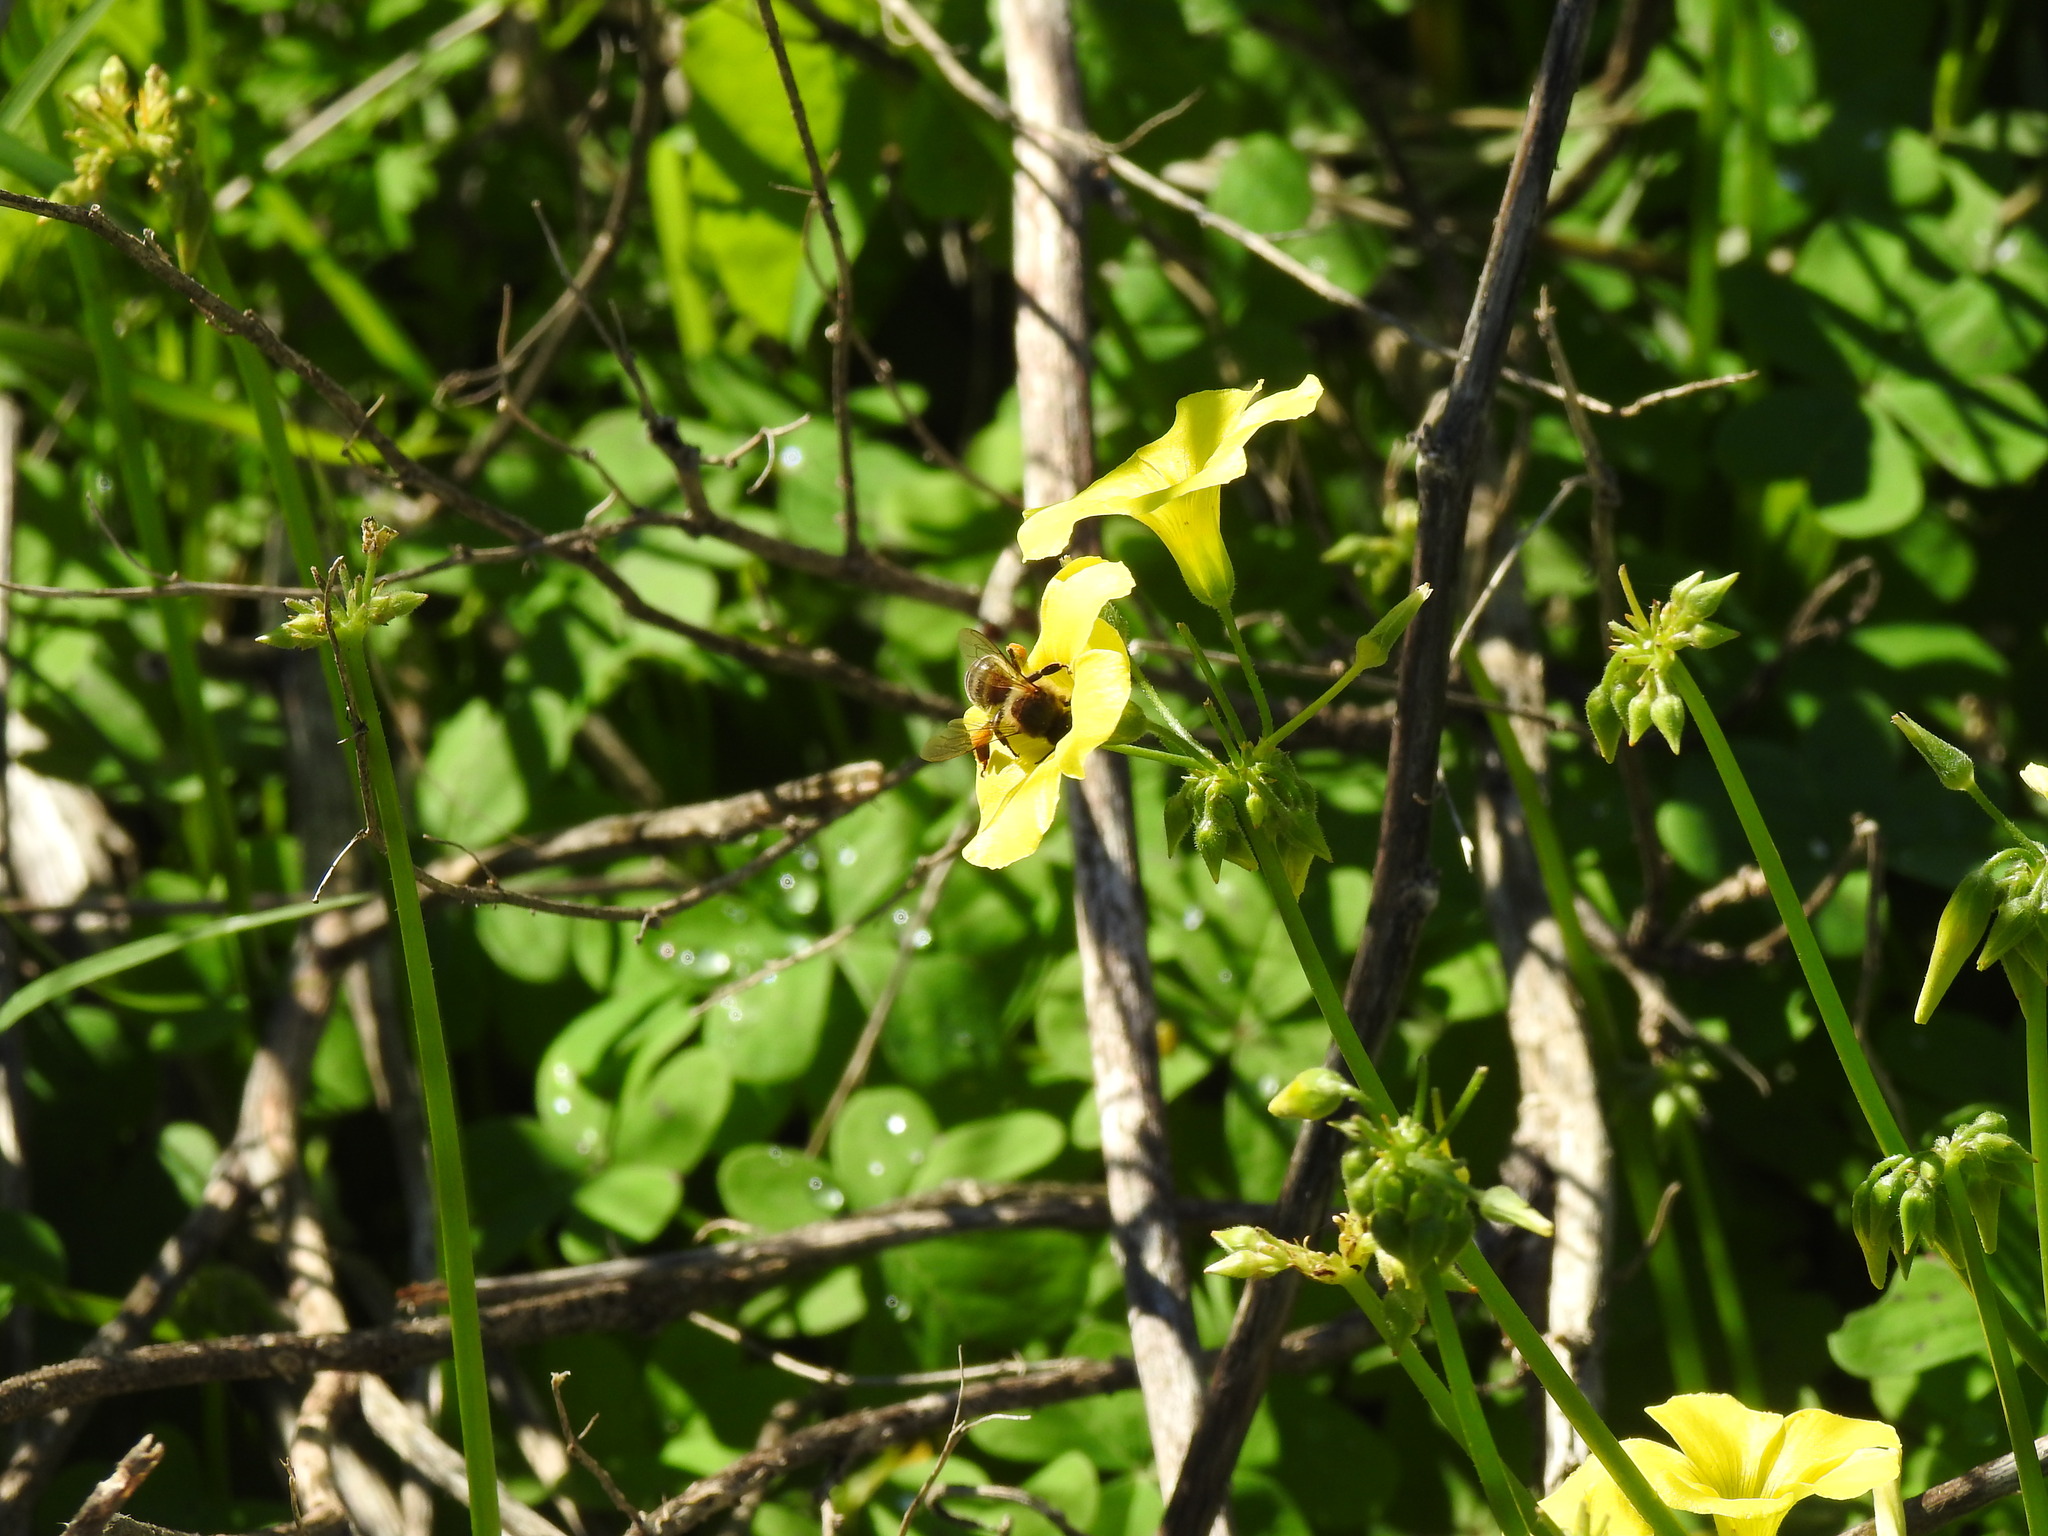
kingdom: Animalia
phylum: Arthropoda
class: Insecta
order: Hymenoptera
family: Apidae
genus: Apis
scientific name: Apis mellifera
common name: Honey bee
